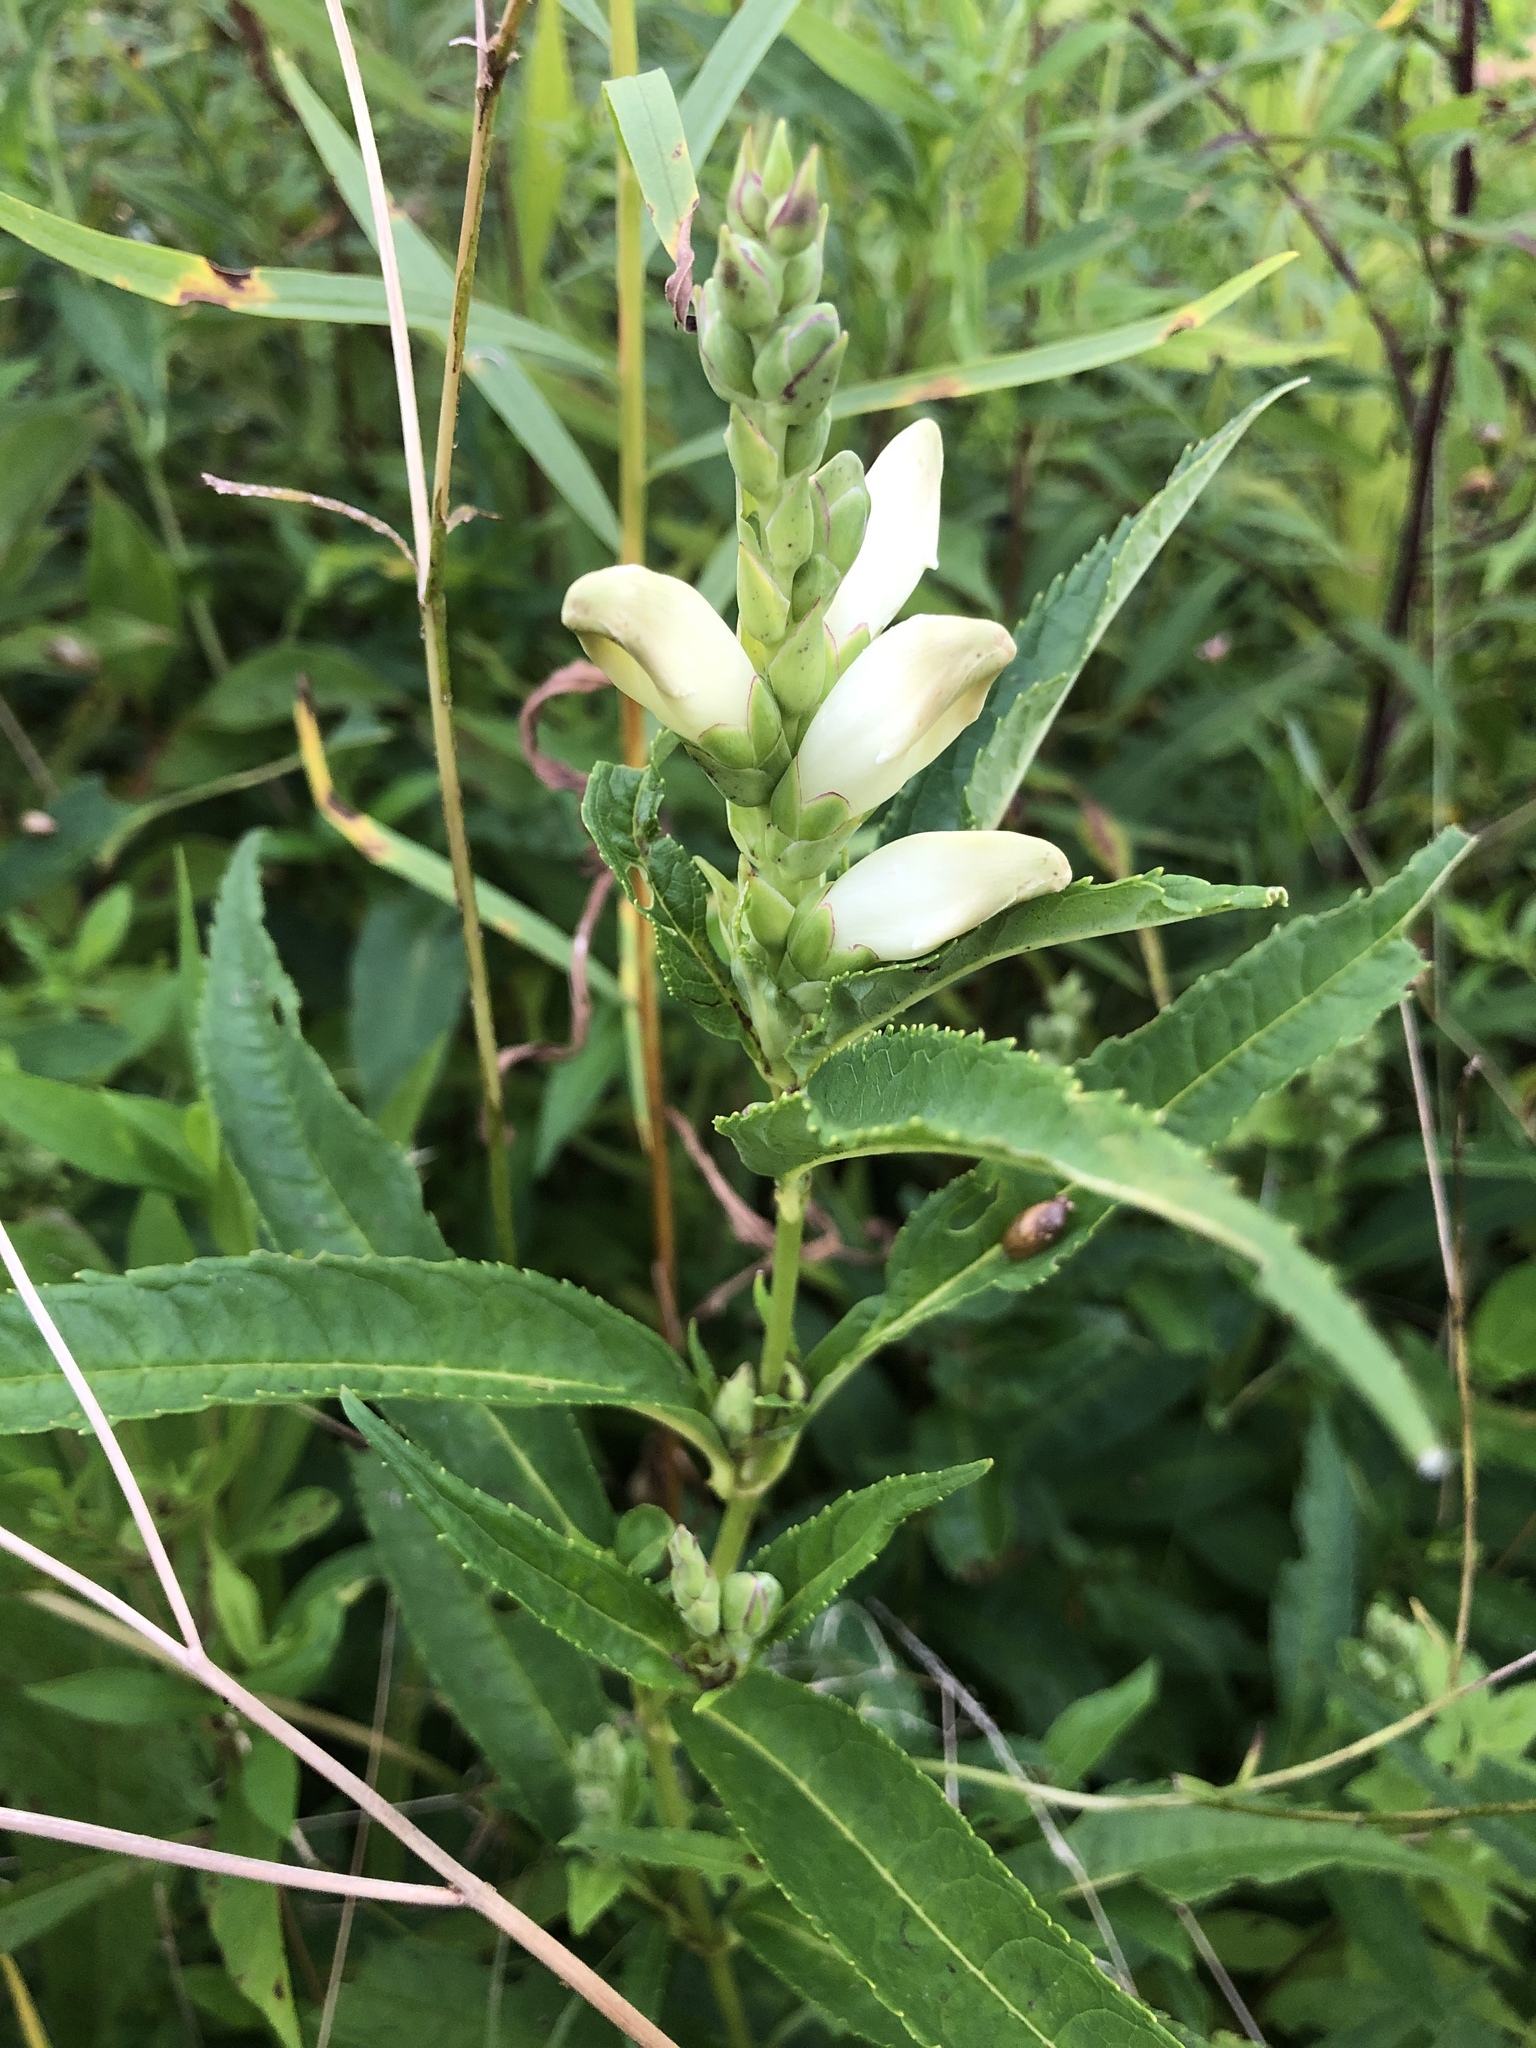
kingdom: Plantae
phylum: Tracheophyta
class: Magnoliopsida
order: Lamiales
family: Plantaginaceae
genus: Chelone
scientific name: Chelone glabra
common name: Snakehead
